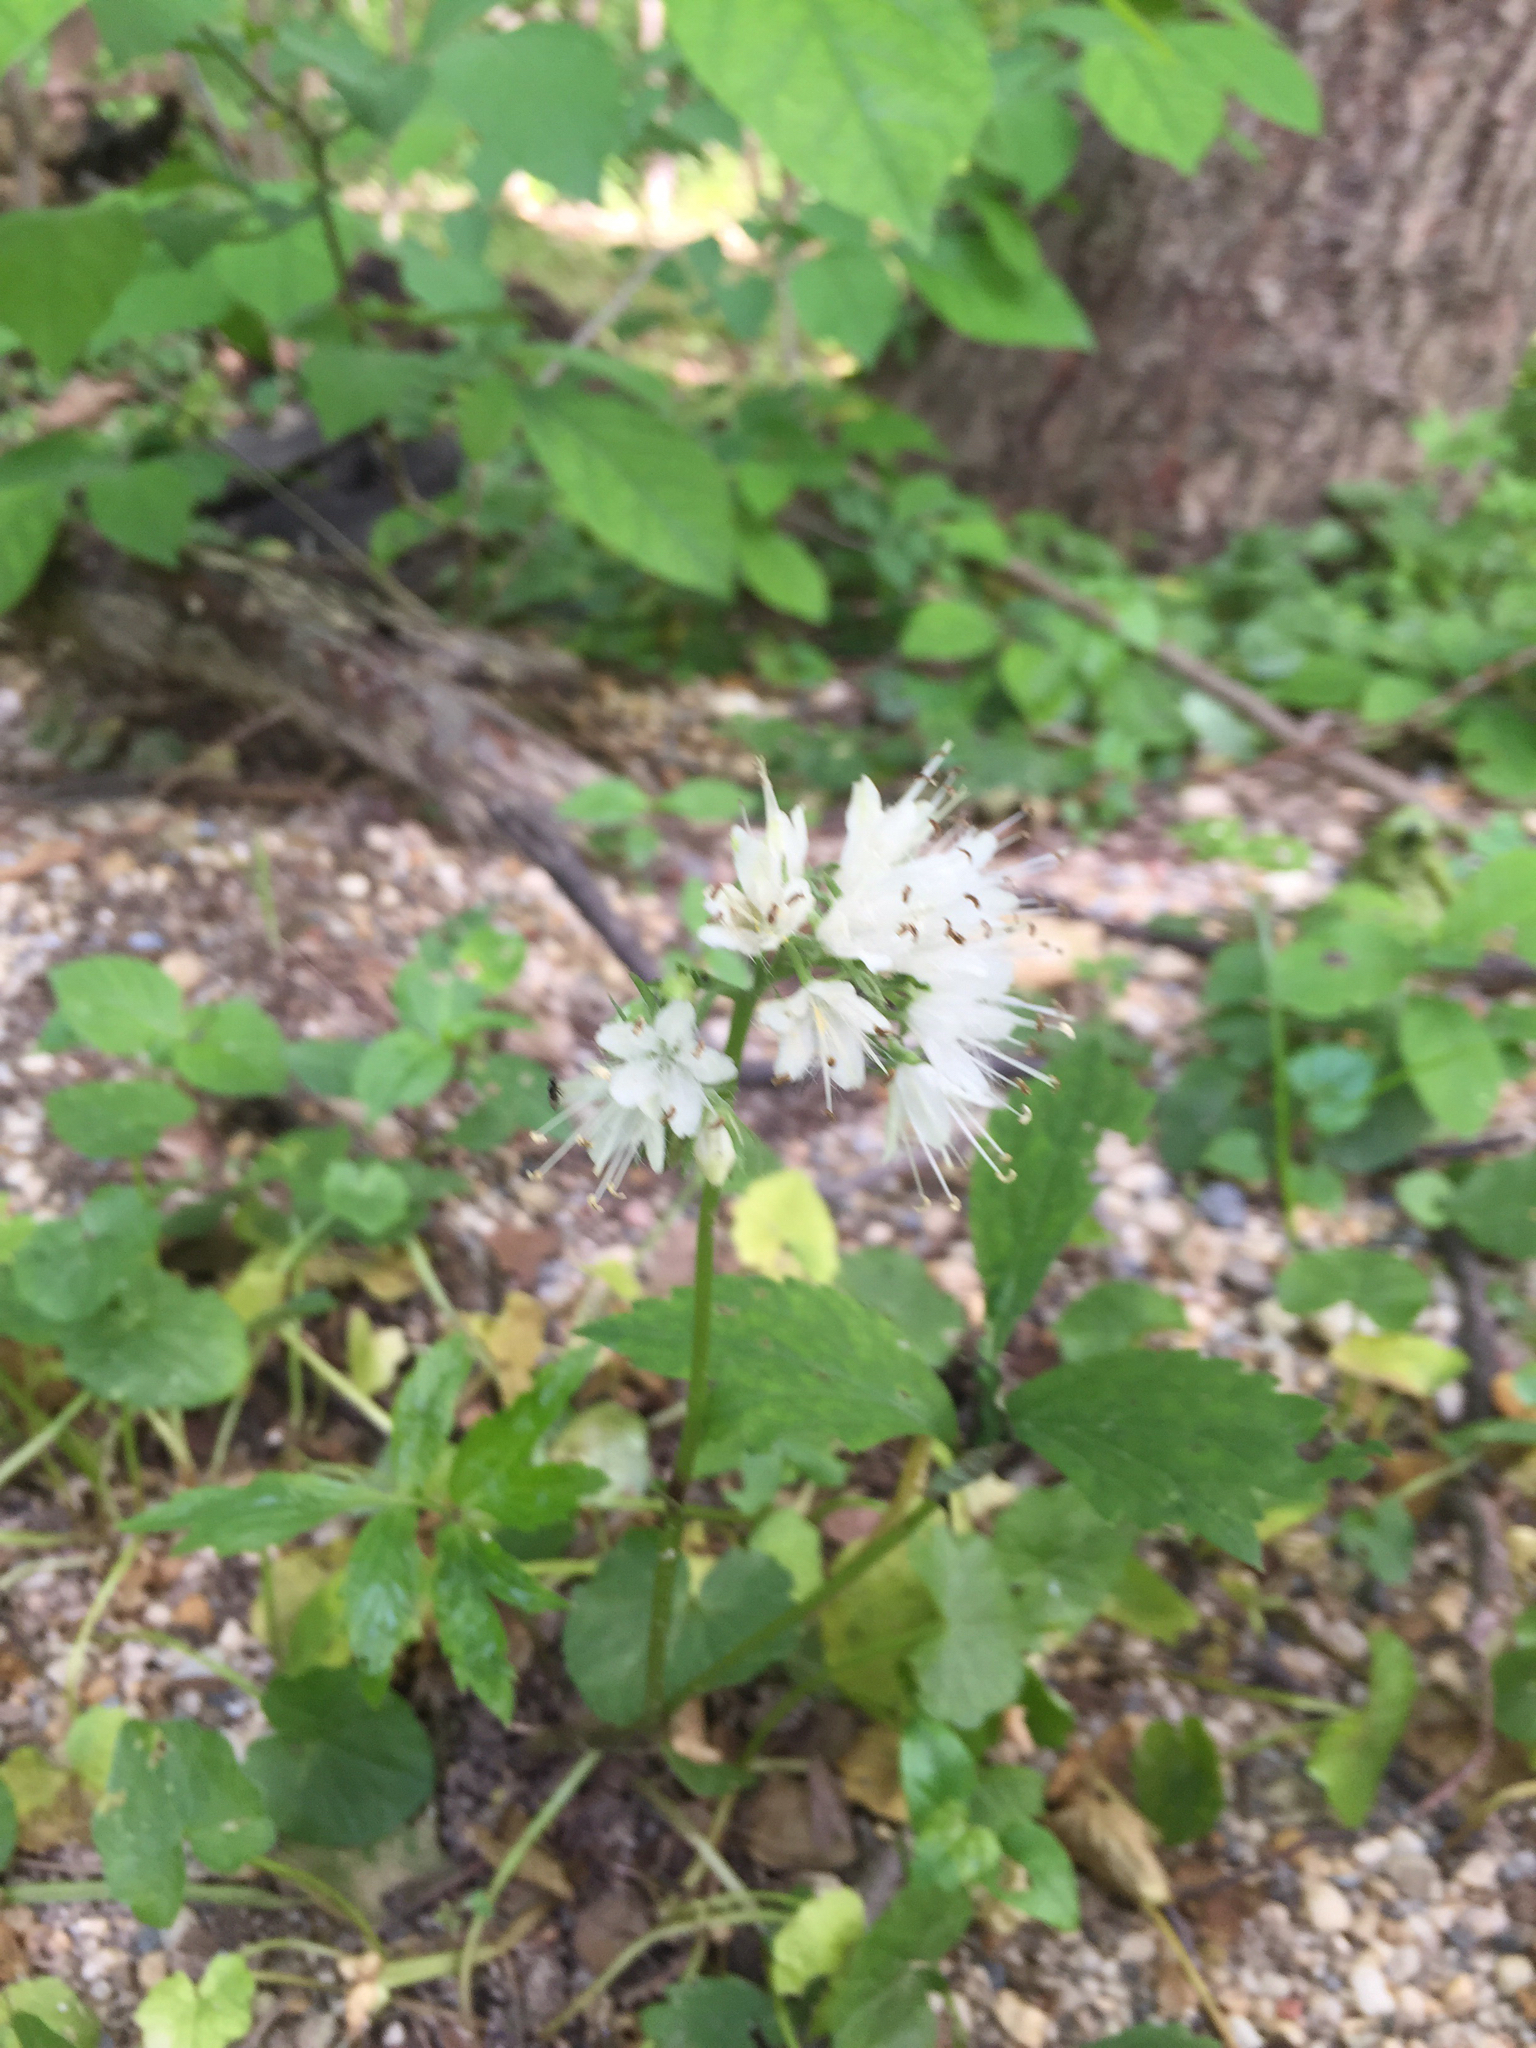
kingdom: Plantae
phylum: Tracheophyta
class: Magnoliopsida
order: Boraginales
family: Hydrophyllaceae
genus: Hydrophyllum
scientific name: Hydrophyllum virginianum
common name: Virginia waterleaf
